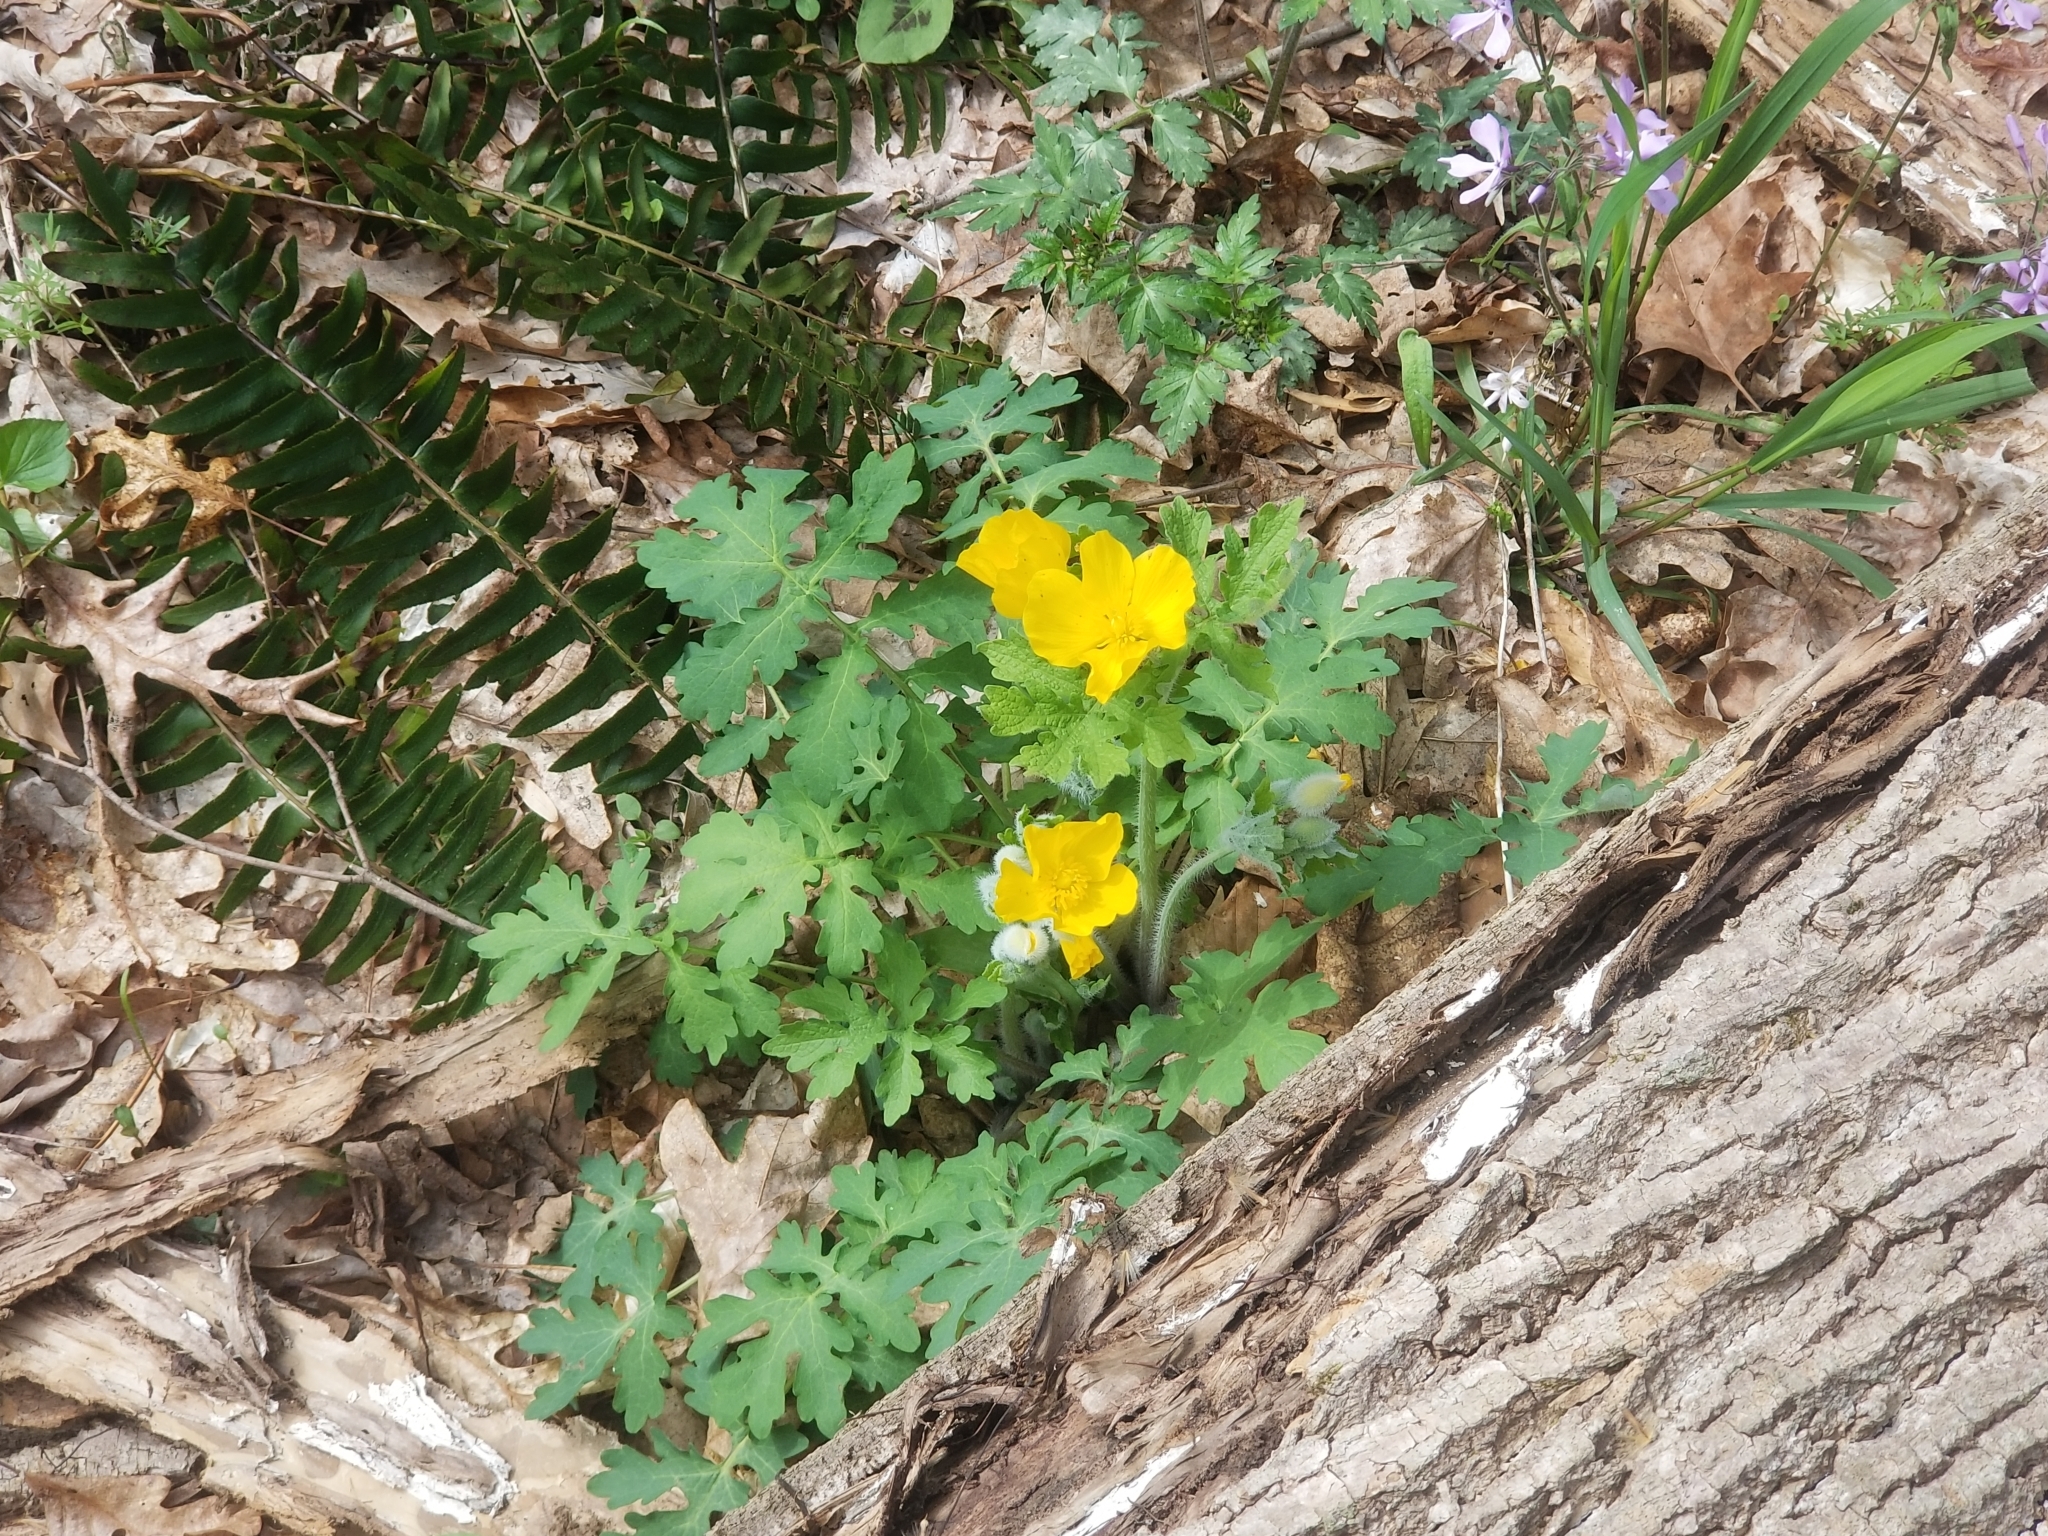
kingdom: Plantae
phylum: Tracheophyta
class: Magnoliopsida
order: Ranunculales
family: Papaveraceae
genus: Stylophorum
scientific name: Stylophorum diphyllum
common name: Celandine poppy
